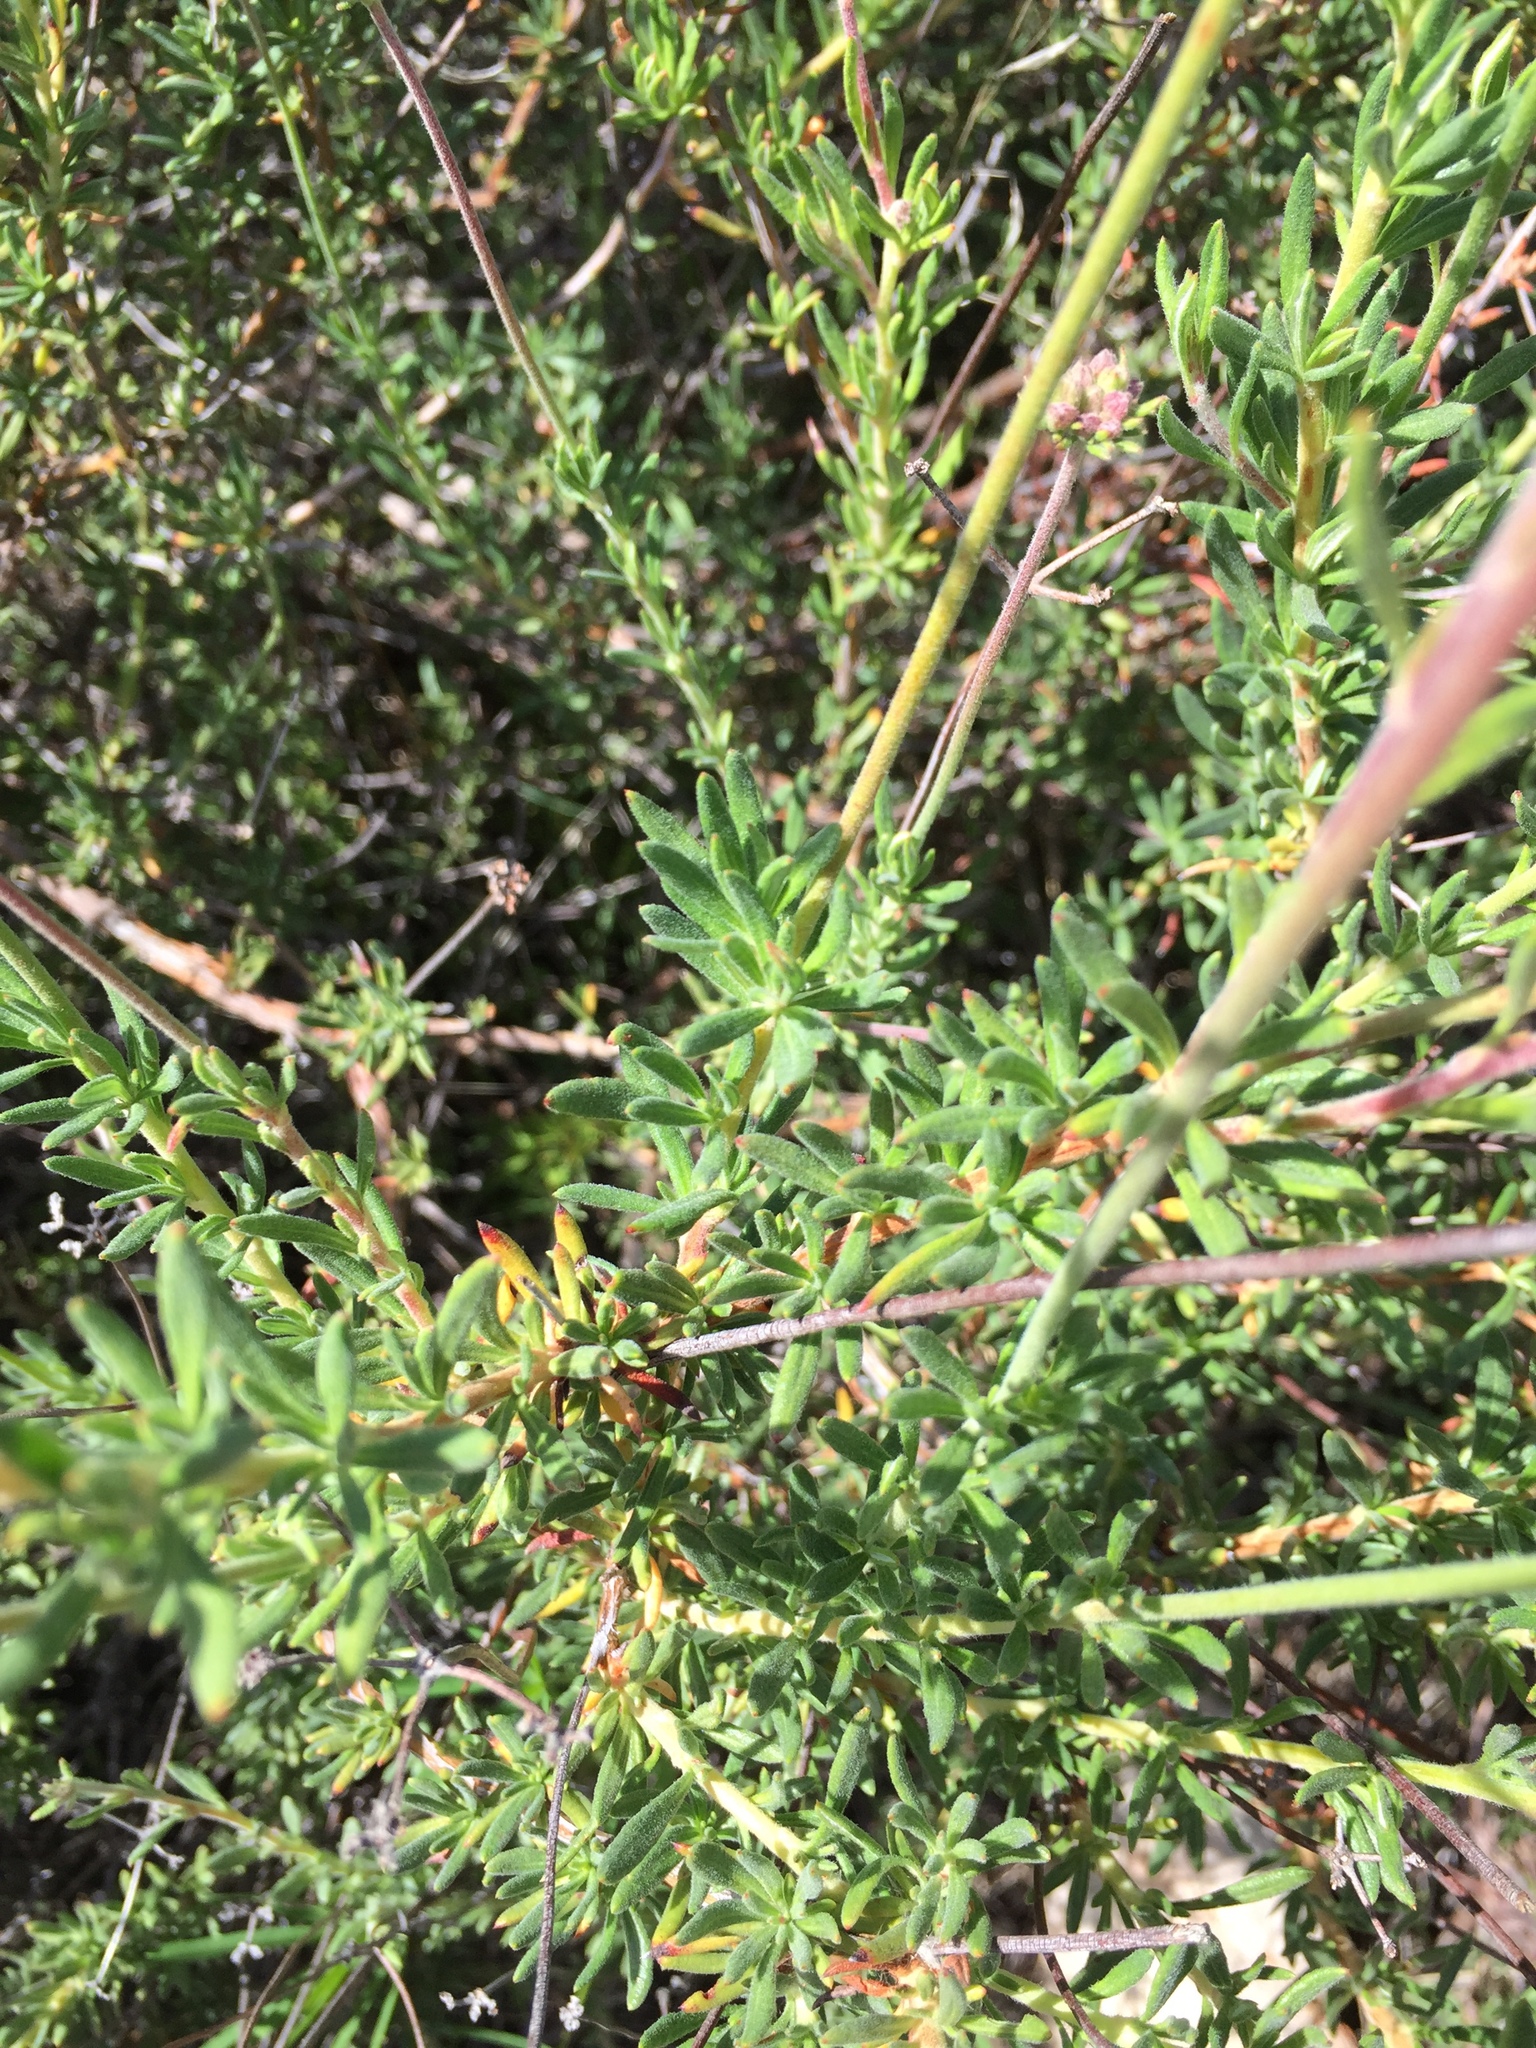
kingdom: Plantae
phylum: Tracheophyta
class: Magnoliopsida
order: Caryophyllales
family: Polygonaceae
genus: Eriogonum
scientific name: Eriogonum fasciculatum
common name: California wild buckwheat
